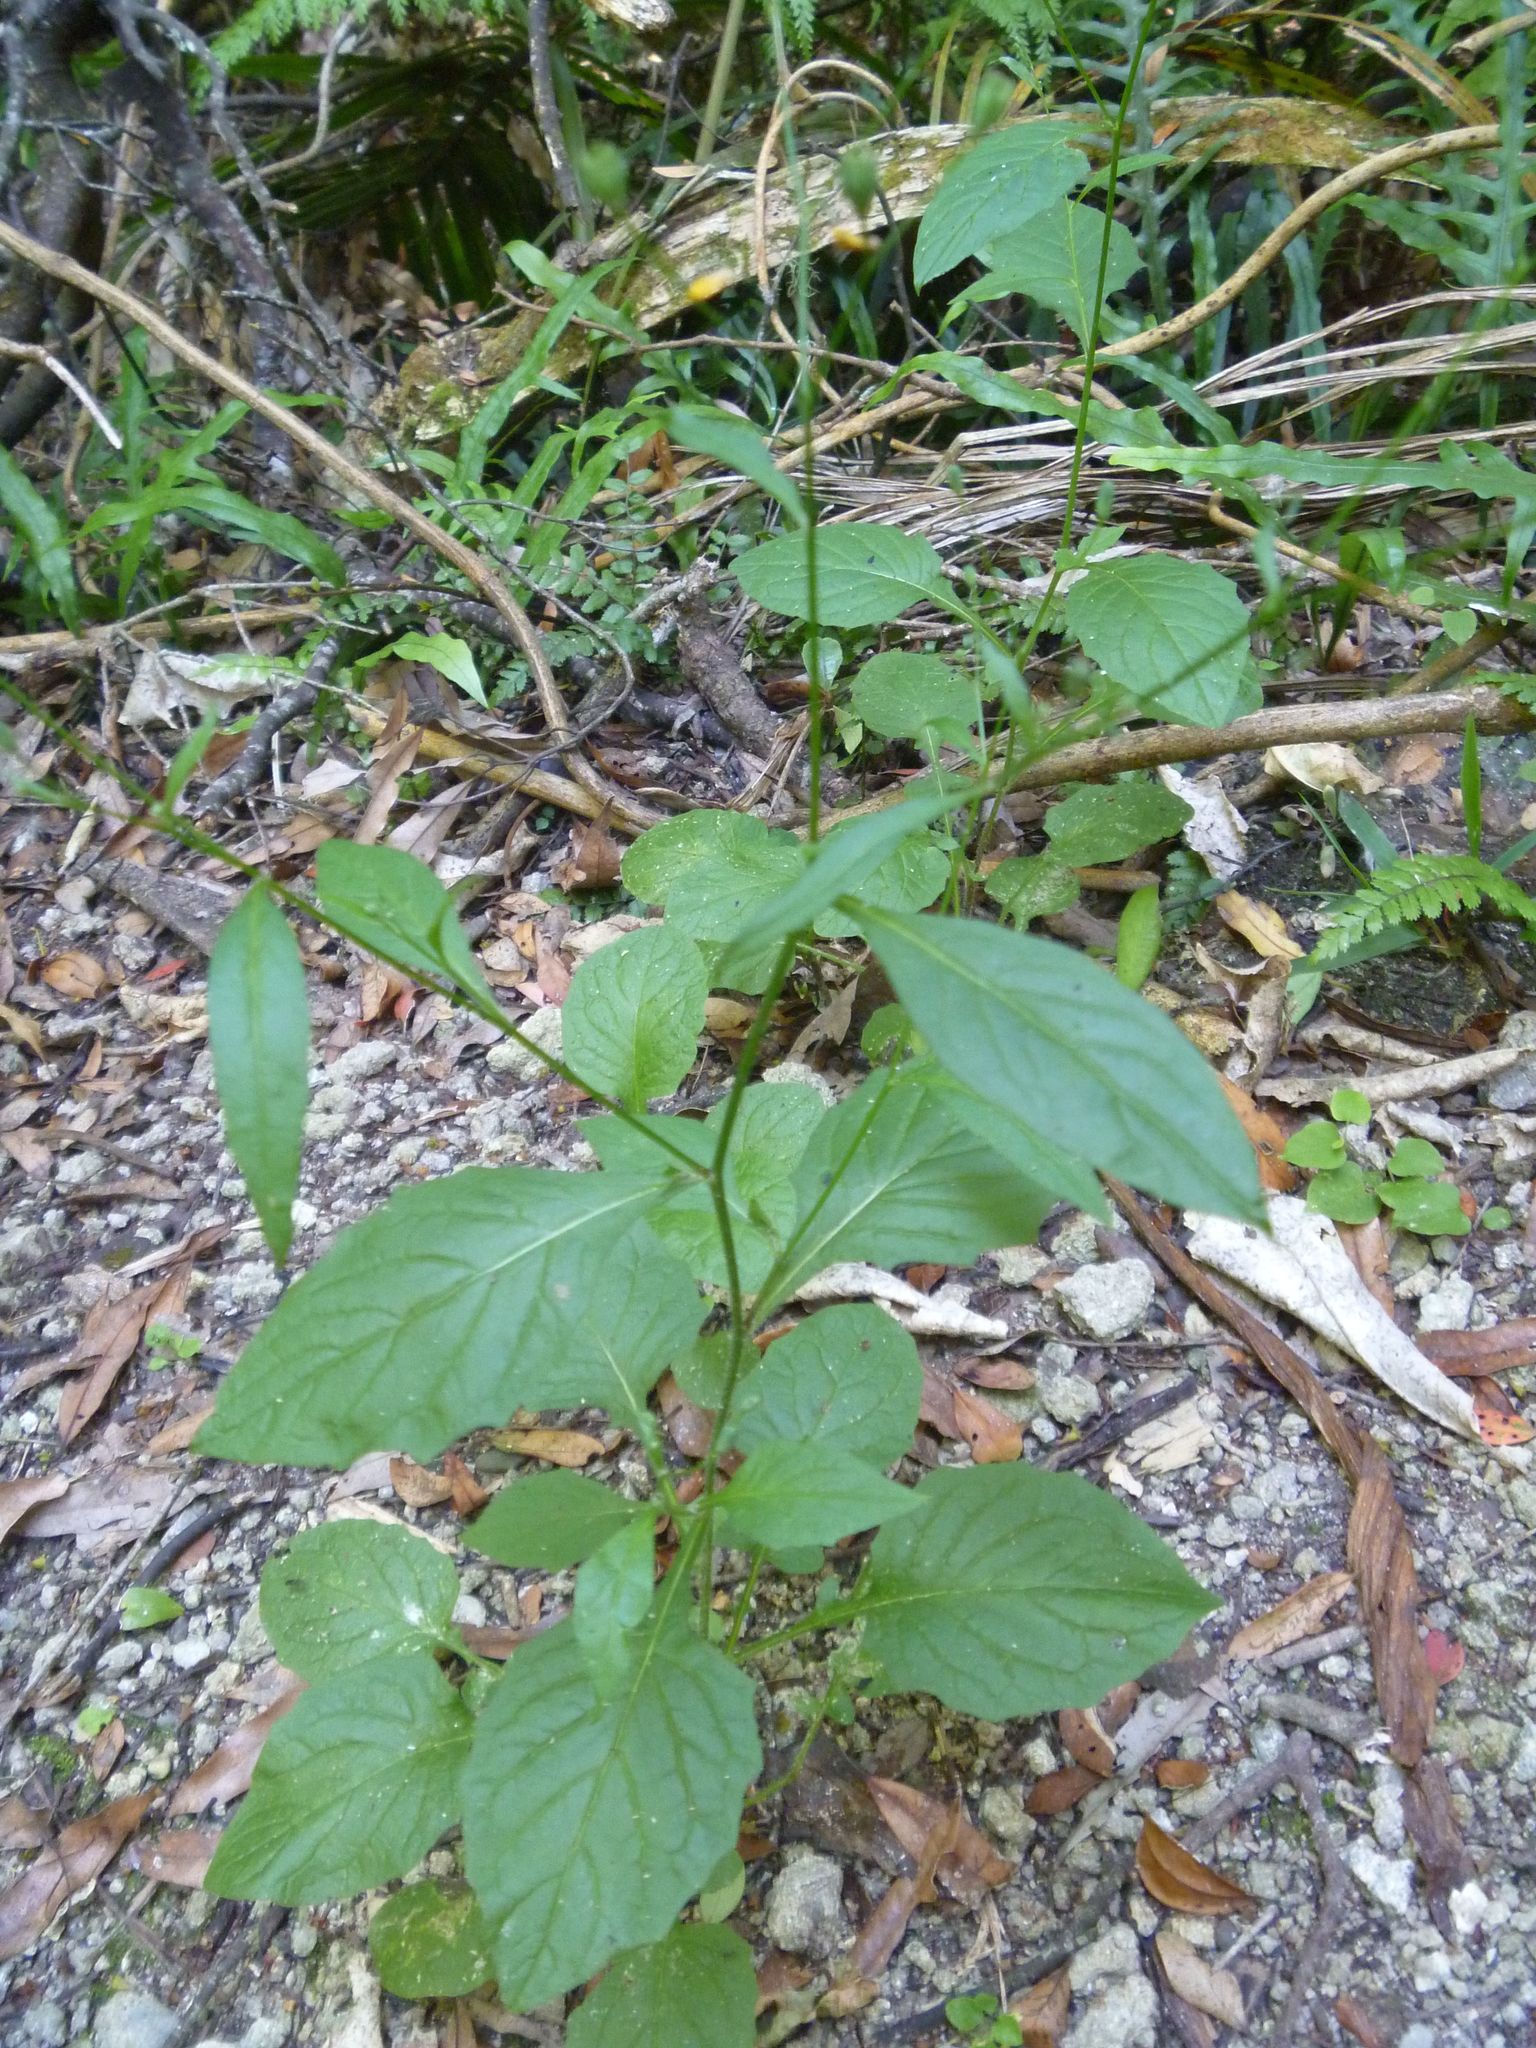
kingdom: Plantae
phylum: Tracheophyta
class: Magnoliopsida
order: Asterales
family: Asteraceae
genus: Lapsana
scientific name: Lapsana communis
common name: Nipplewort
